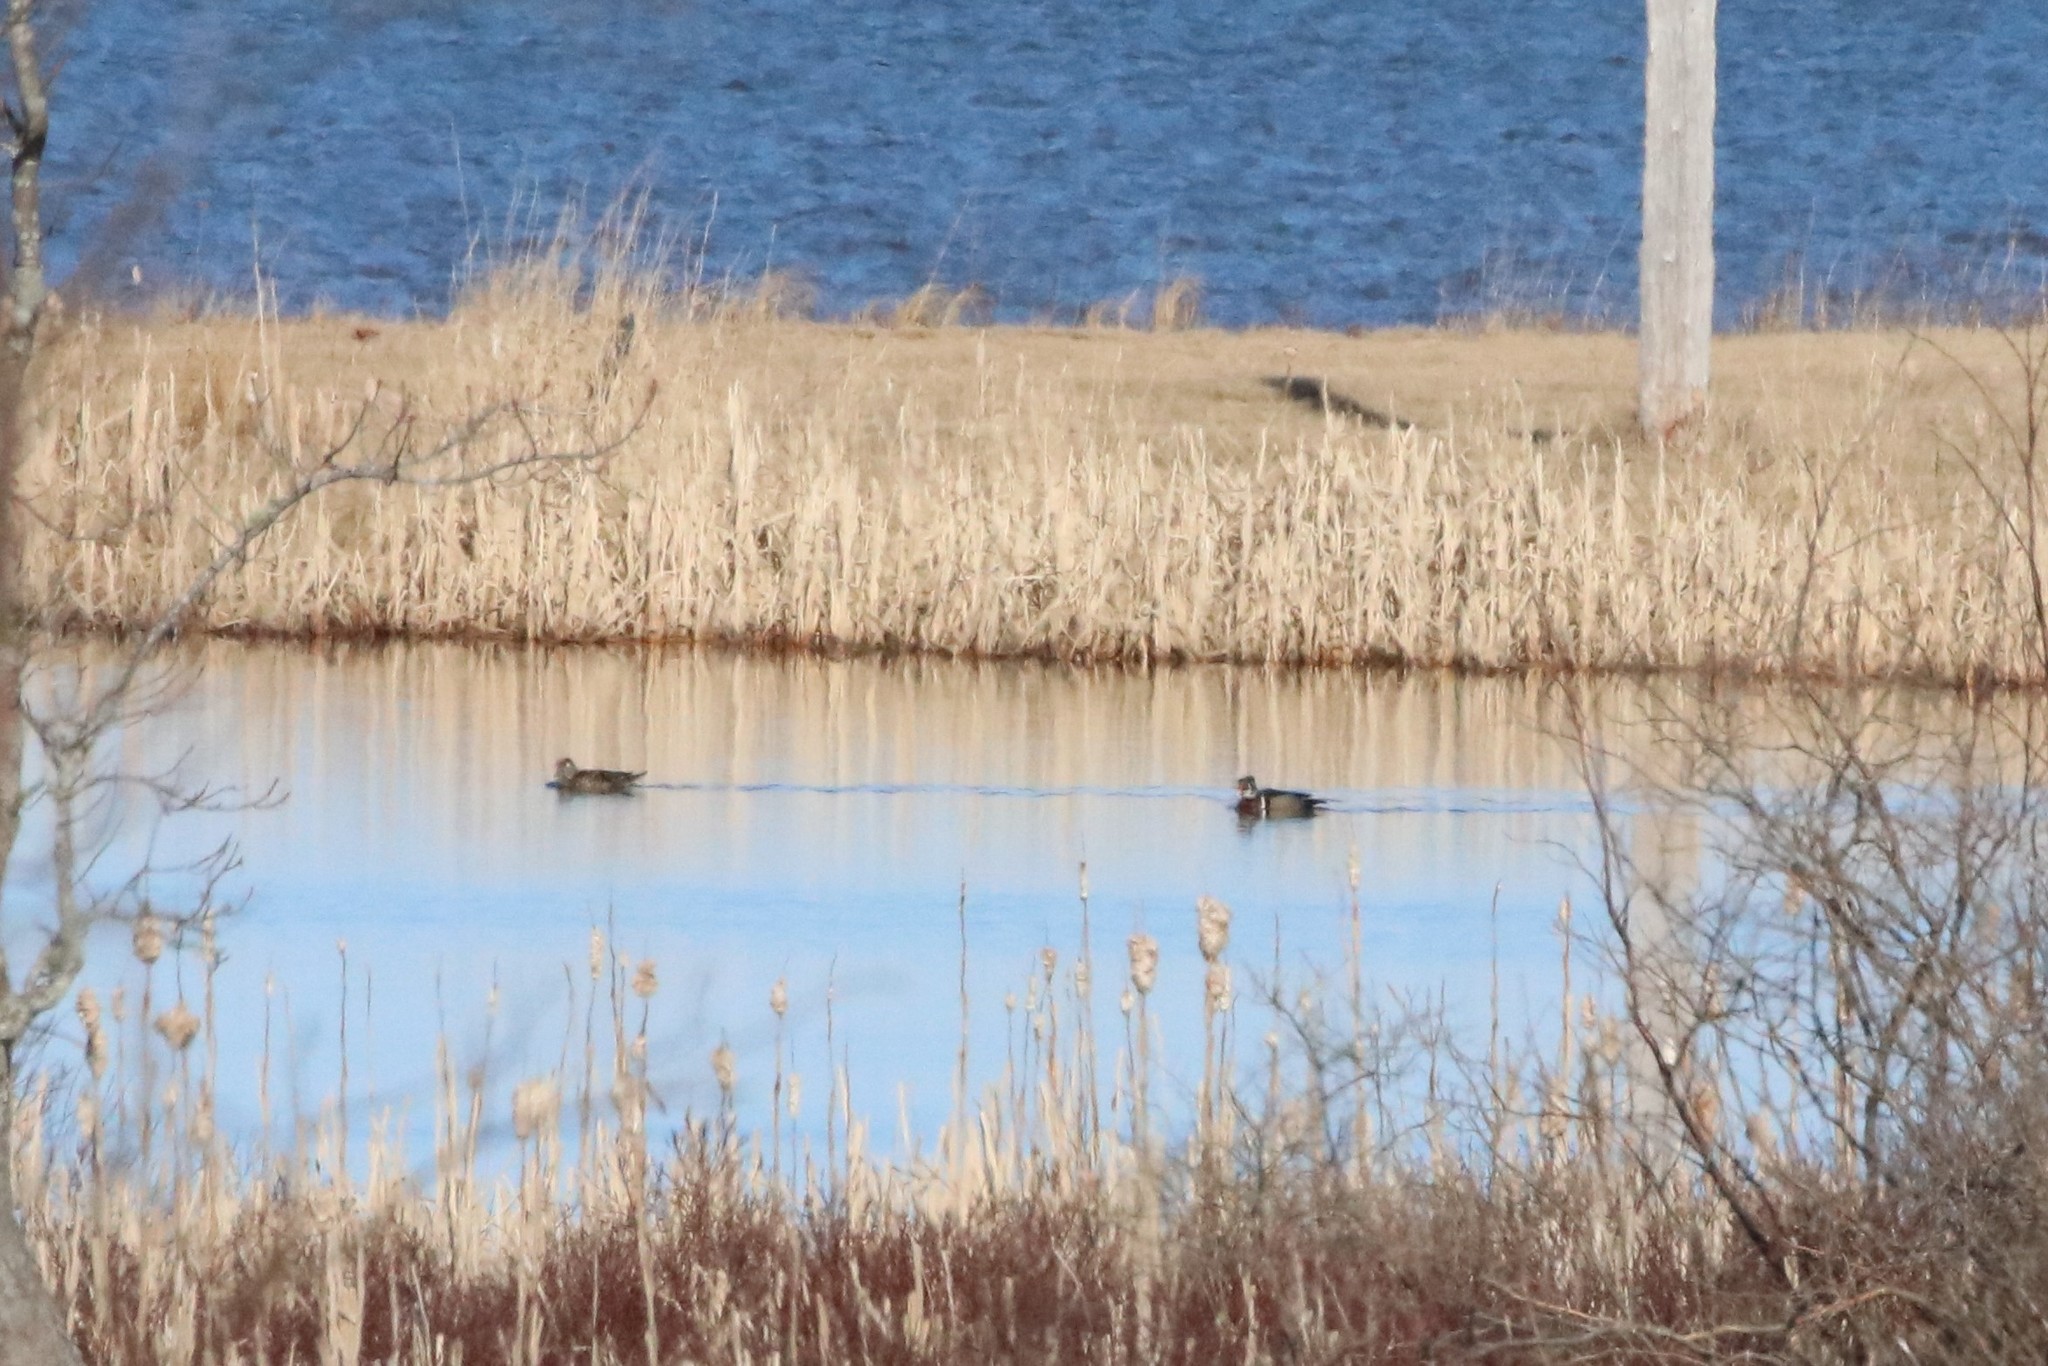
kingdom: Animalia
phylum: Chordata
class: Aves
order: Anseriformes
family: Anatidae
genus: Aix
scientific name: Aix sponsa
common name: Wood duck
